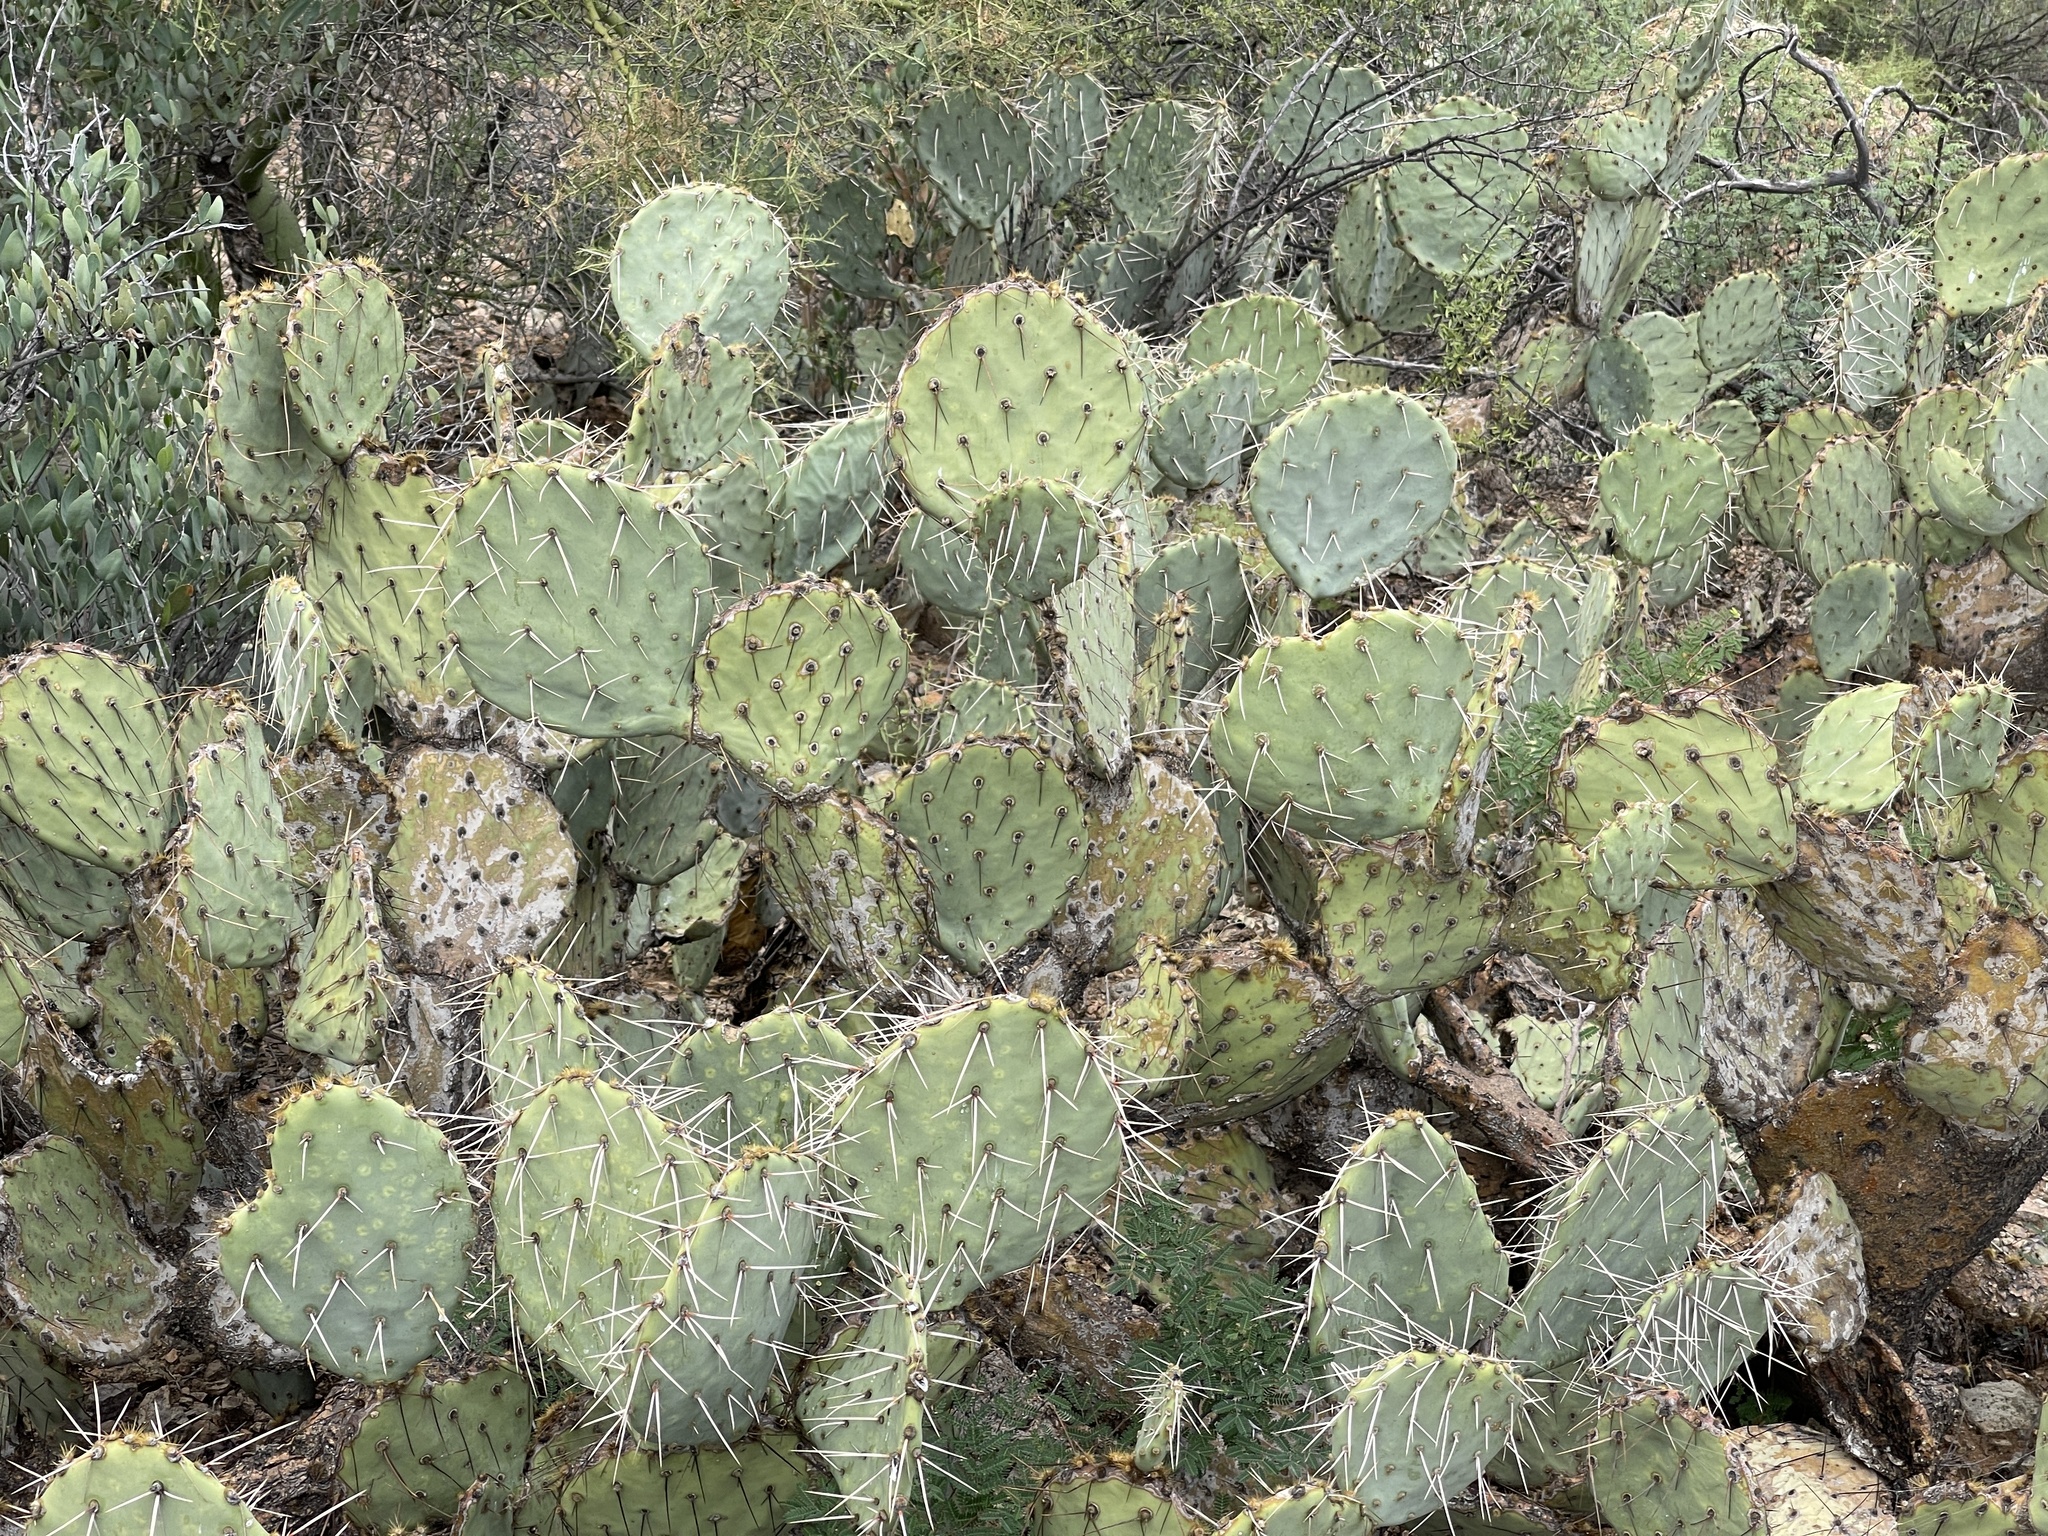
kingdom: Plantae
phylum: Tracheophyta
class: Magnoliopsida
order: Caryophyllales
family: Cactaceae
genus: Opuntia
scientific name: Opuntia phaeacantha
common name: New mexico prickly-pear
